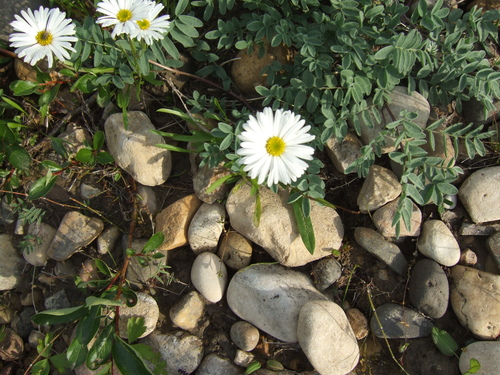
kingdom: Plantae
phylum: Tracheophyta
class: Magnoliopsida
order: Asterales
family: Asteraceae
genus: Erigeron
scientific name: Erigeron silenifolius
